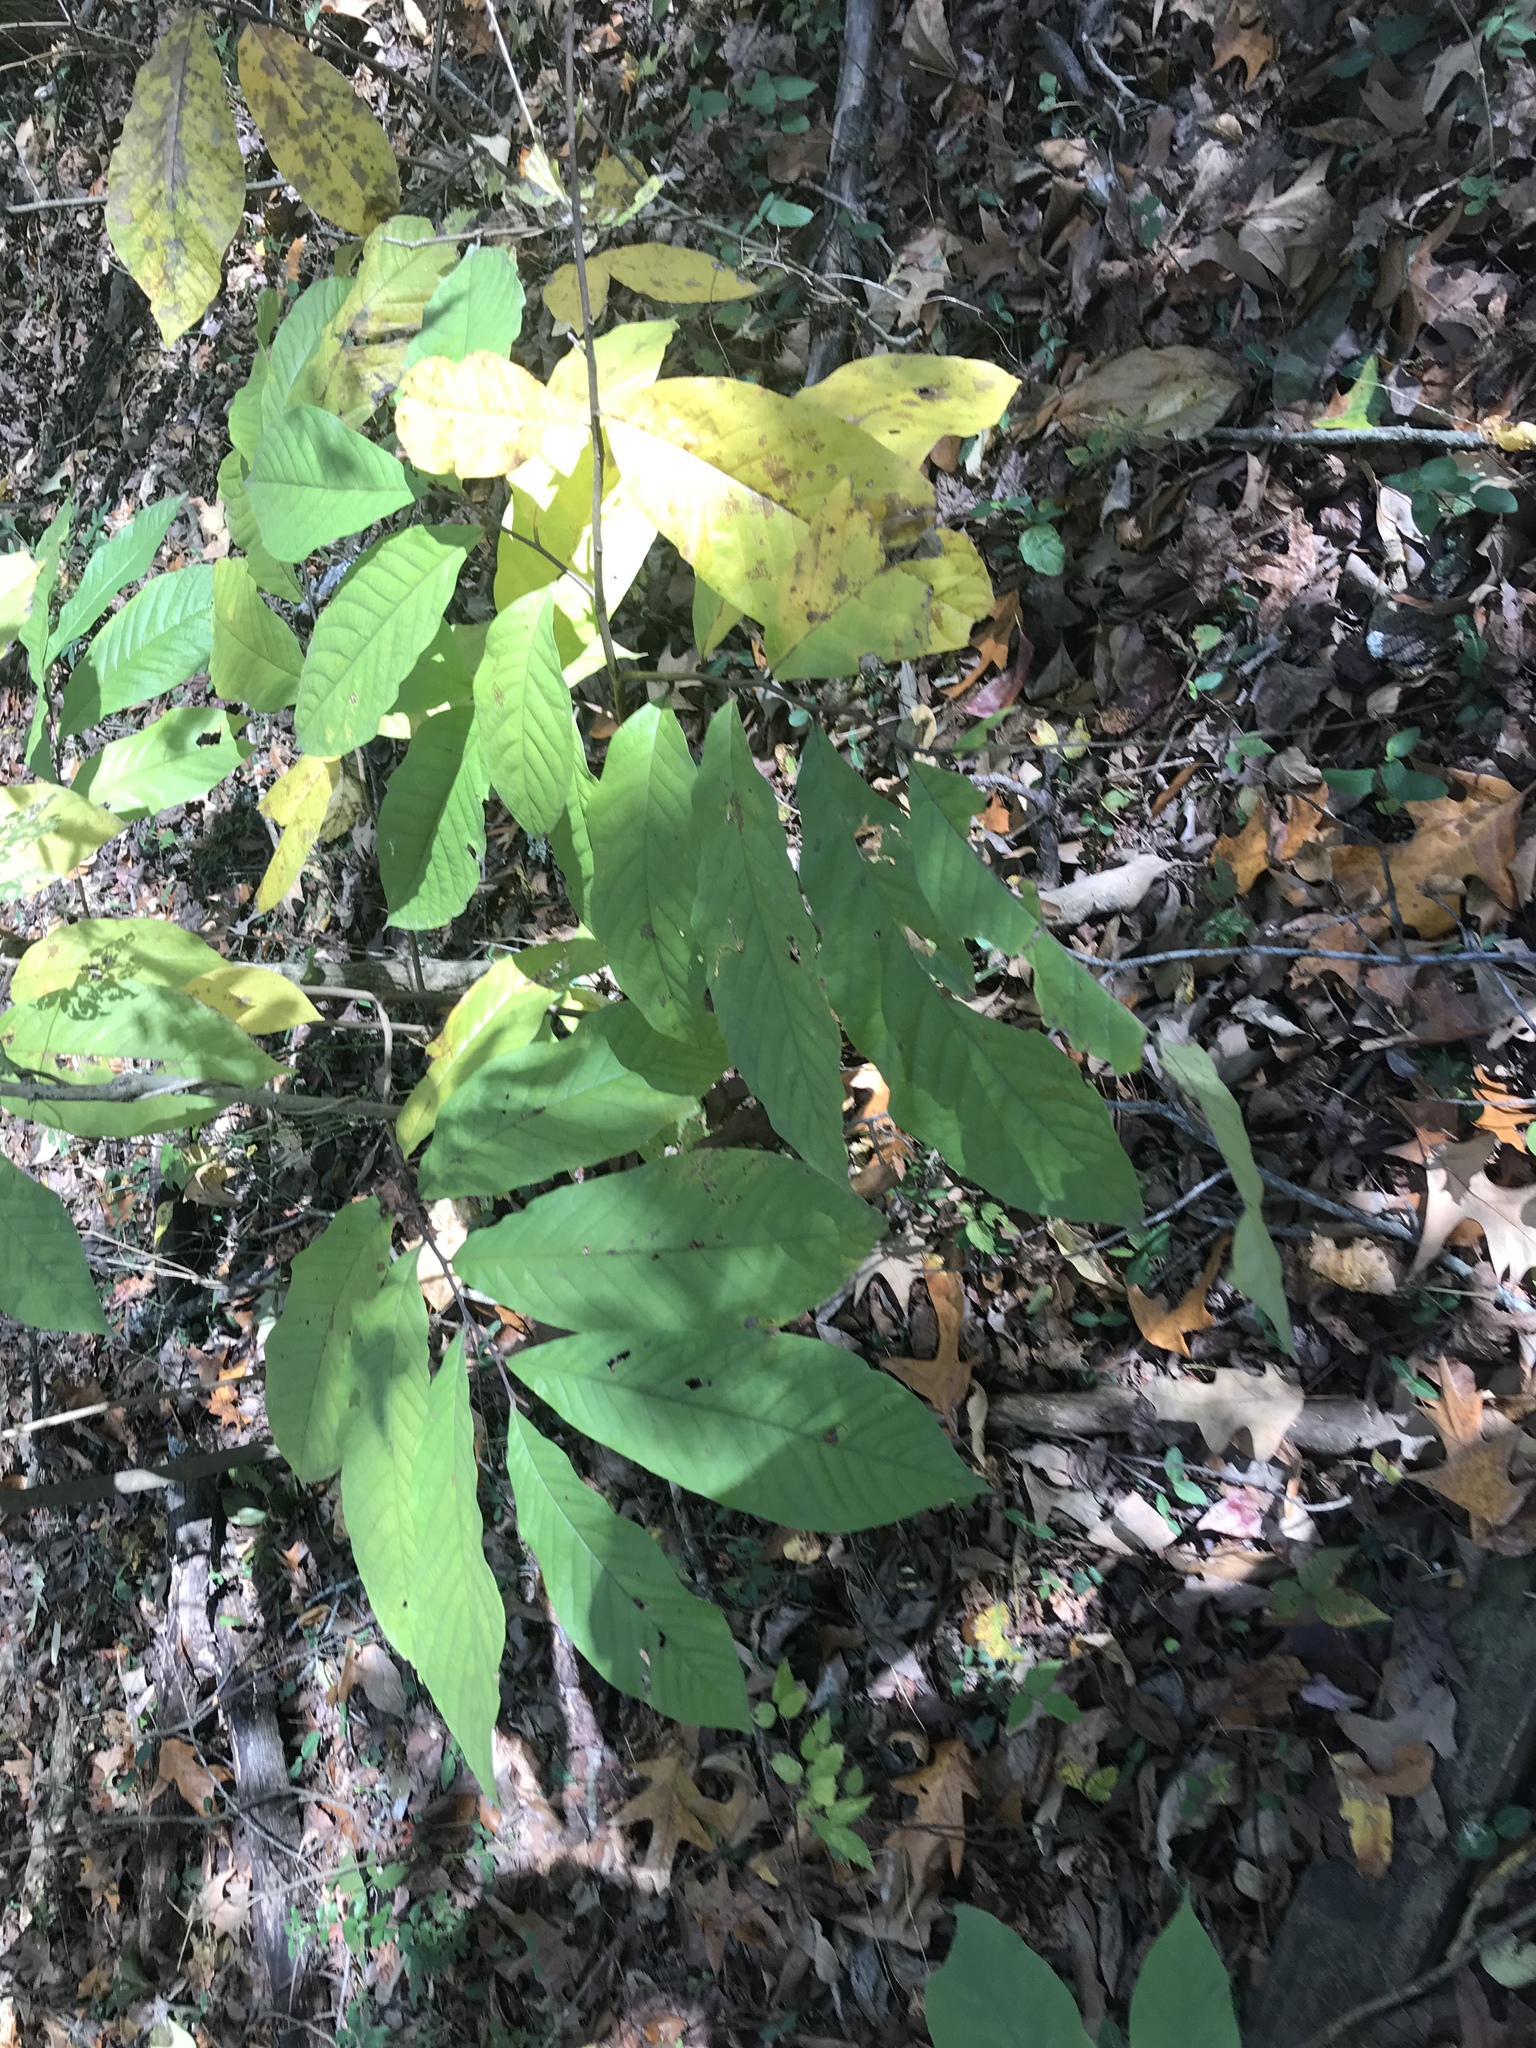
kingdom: Plantae
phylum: Tracheophyta
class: Magnoliopsida
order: Magnoliales
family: Annonaceae
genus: Asimina
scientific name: Asimina triloba
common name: Dog-banana
